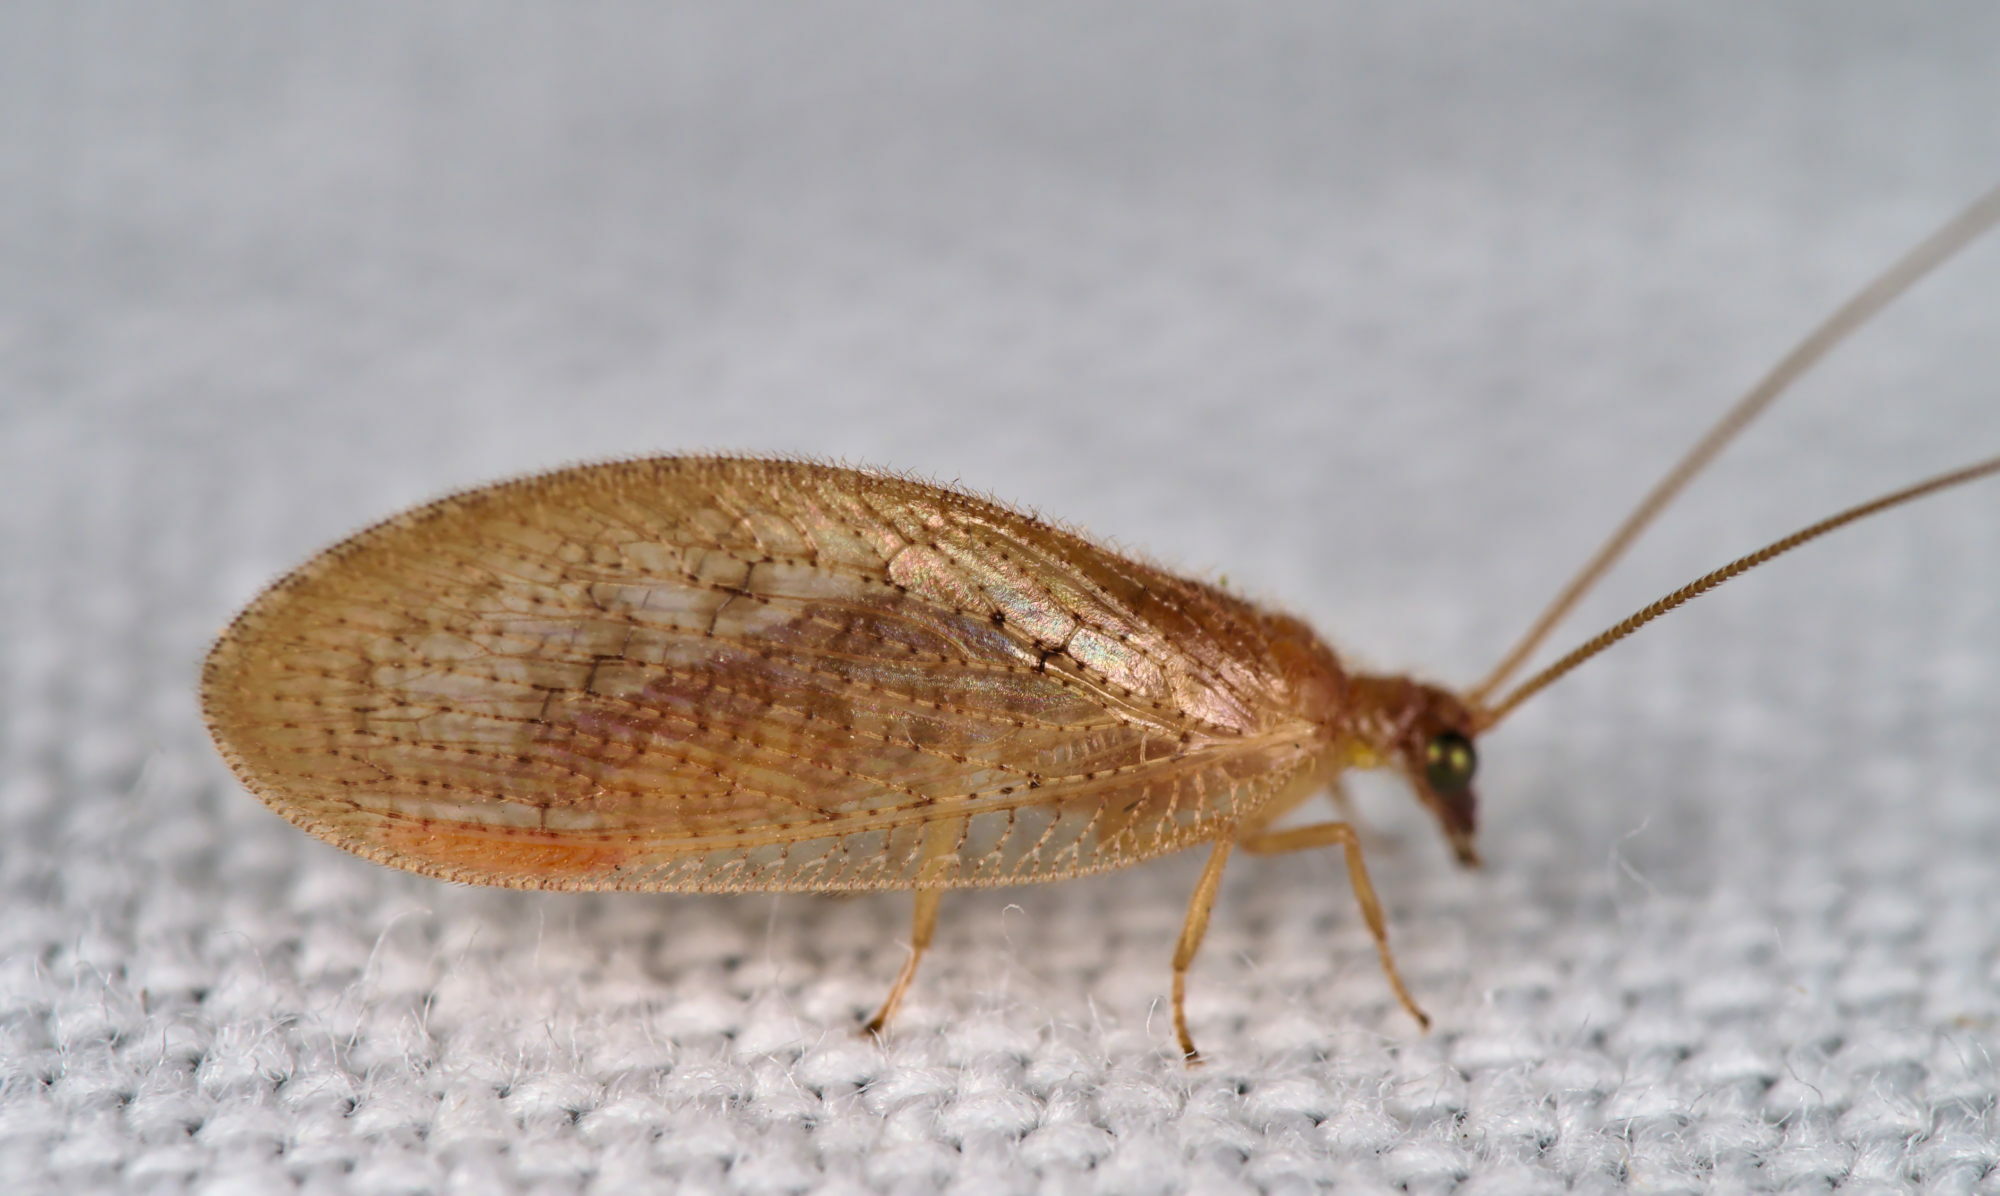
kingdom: Animalia
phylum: Arthropoda
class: Insecta
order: Neuroptera
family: Hemerobiidae
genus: Hemerobius
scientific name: Hemerobius stigma
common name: Brown pine lacewing
